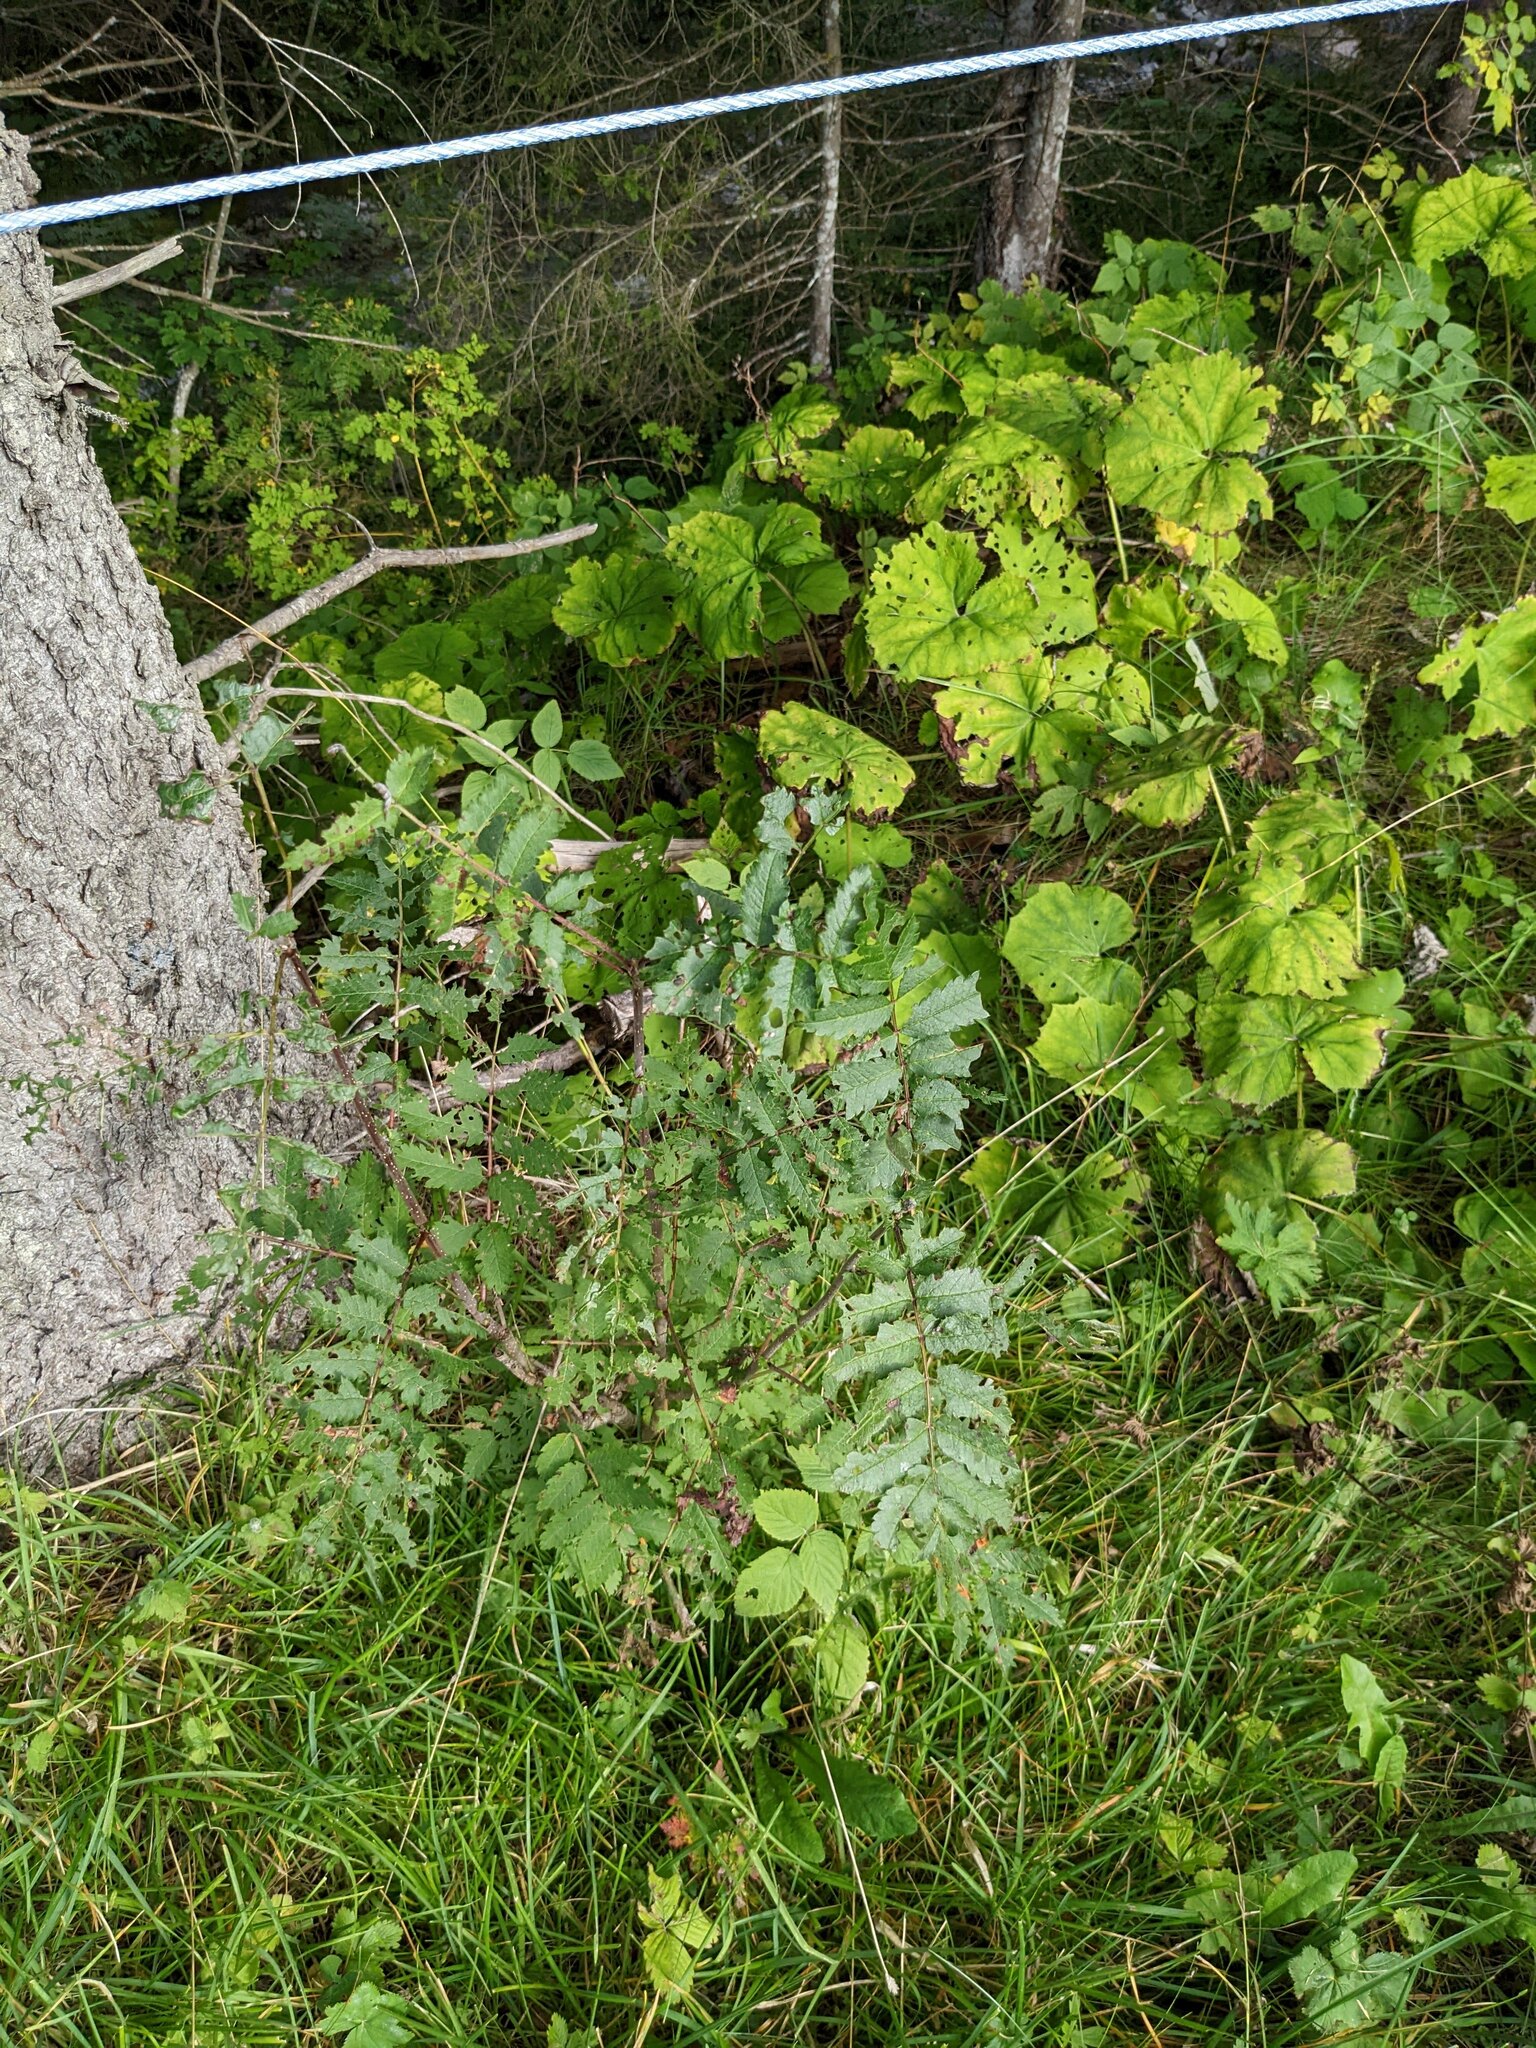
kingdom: Plantae
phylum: Tracheophyta
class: Magnoliopsida
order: Rosales
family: Rosaceae
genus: Sorbus
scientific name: Sorbus aucuparia
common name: Rowan
